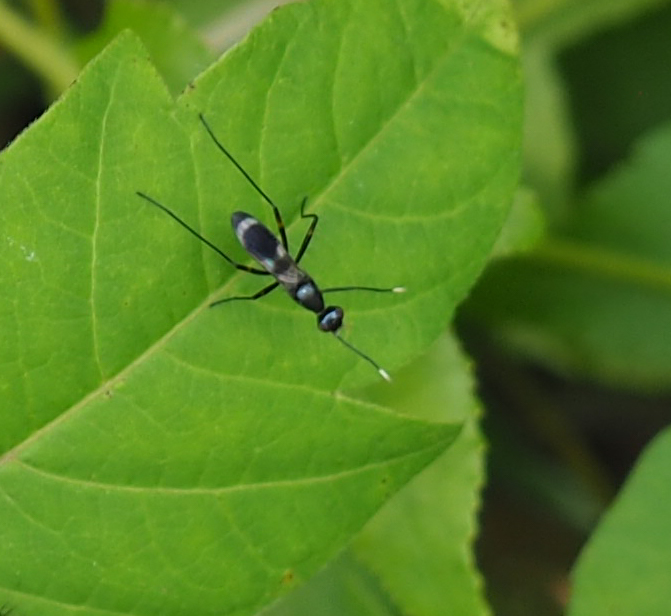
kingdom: Animalia
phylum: Arthropoda
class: Insecta
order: Diptera
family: Micropezidae
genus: Taeniaptera
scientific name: Taeniaptera trivittata
